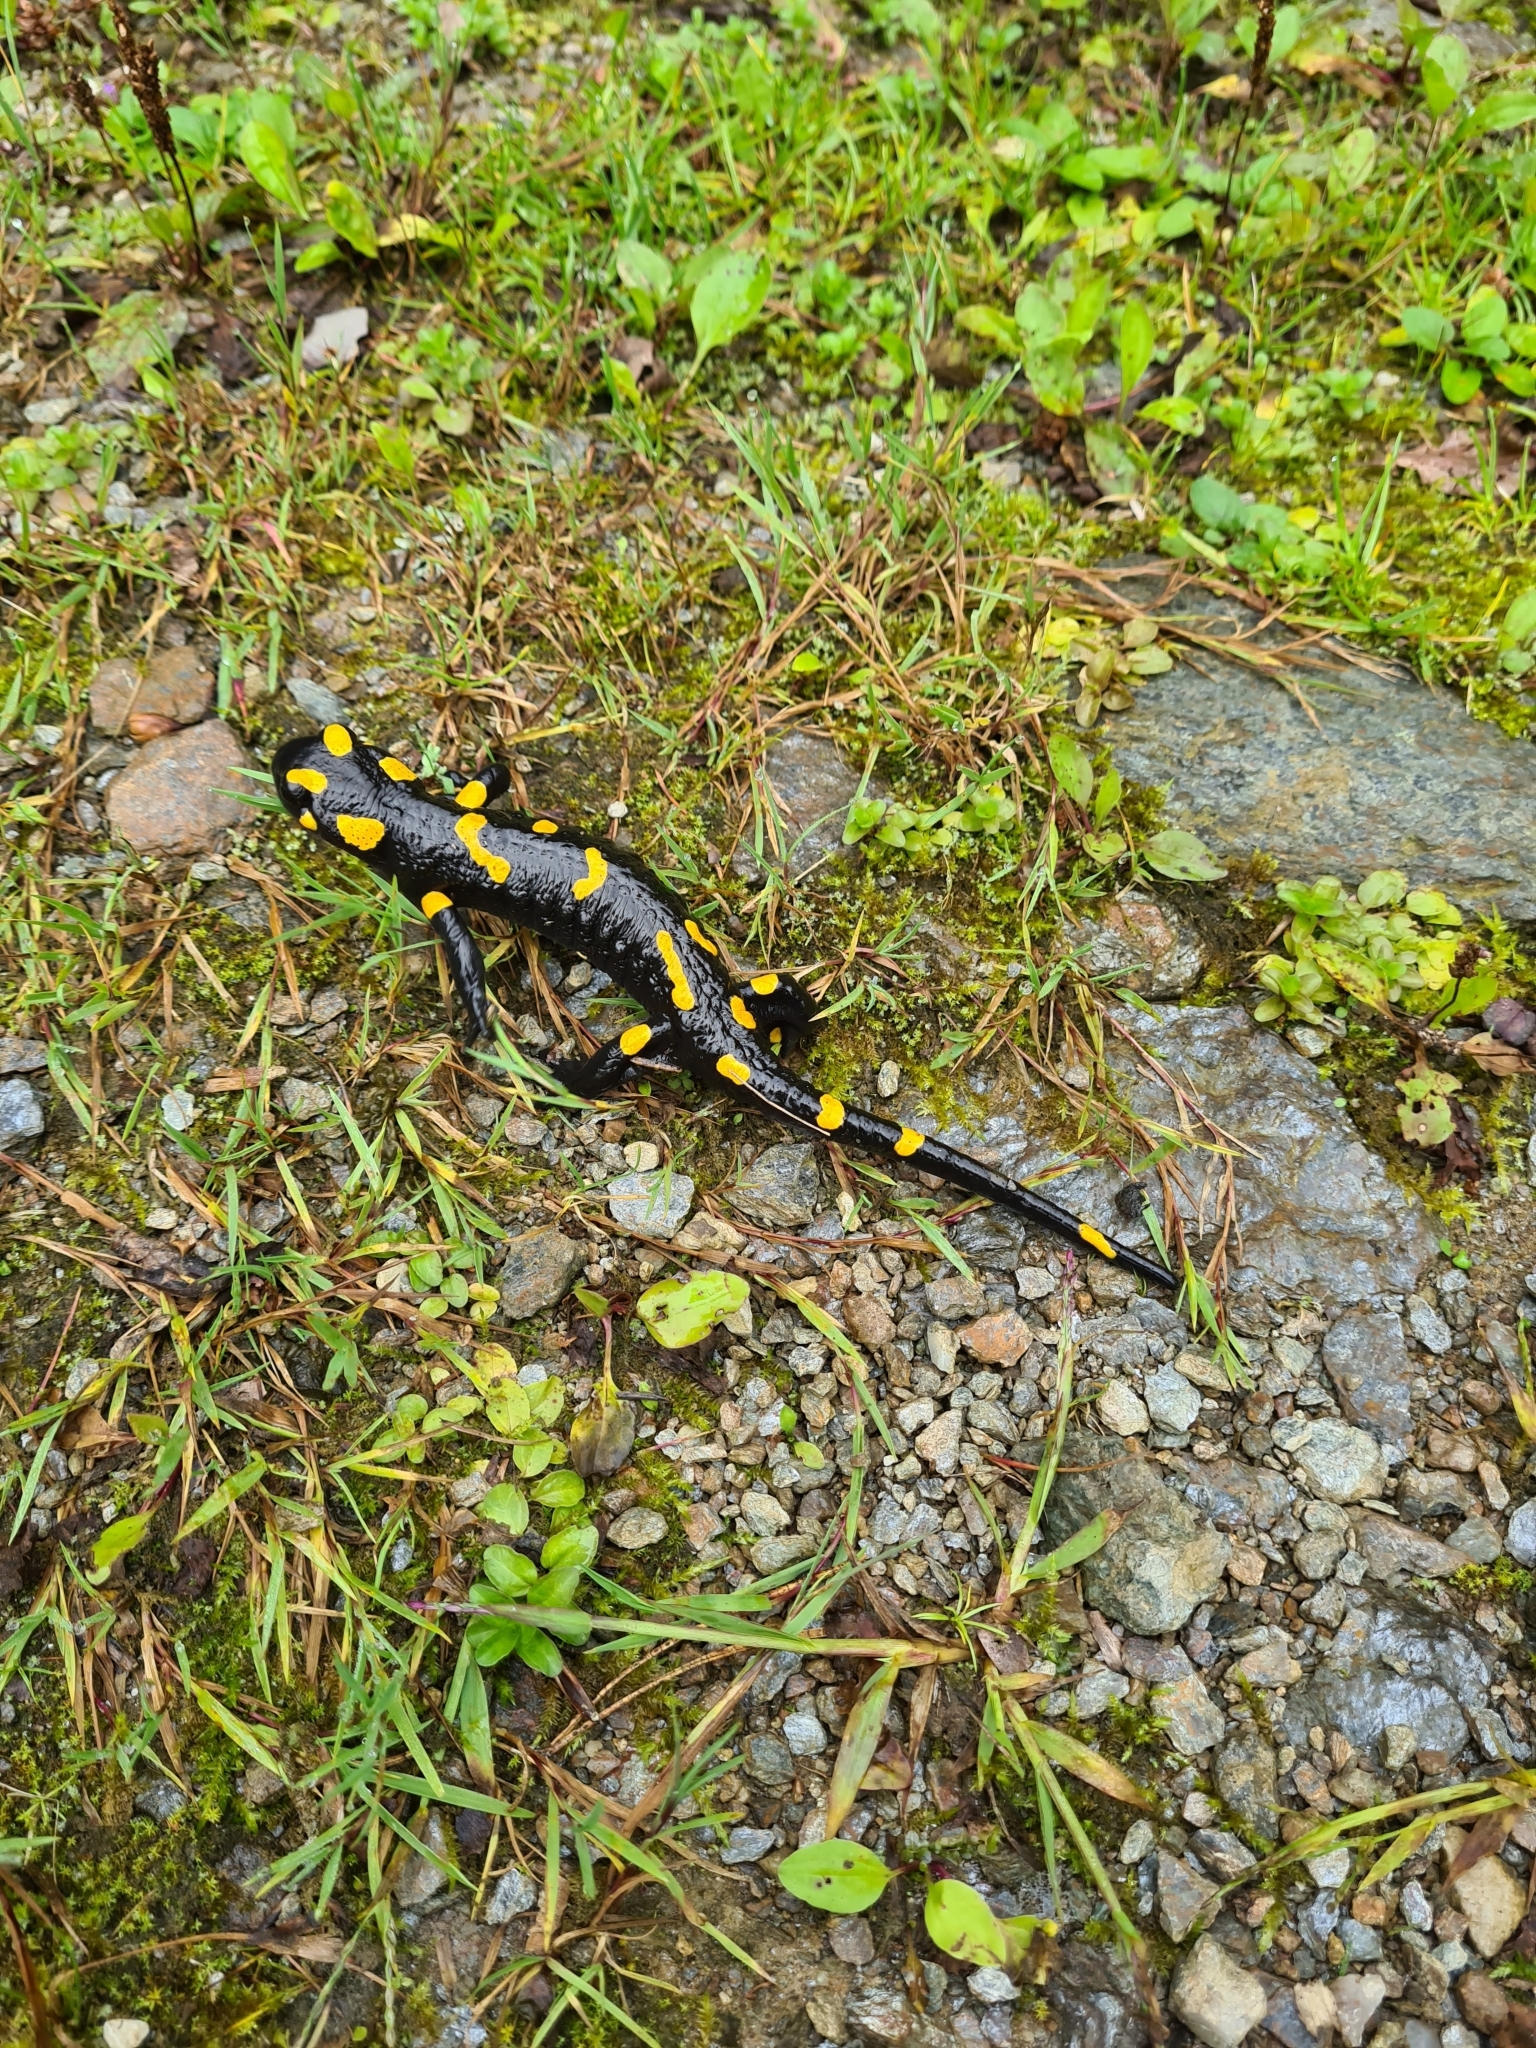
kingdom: Animalia
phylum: Chordata
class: Amphibia
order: Caudata
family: Salamandridae
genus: Salamandra
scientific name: Salamandra salamandra
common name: Fire salamander
